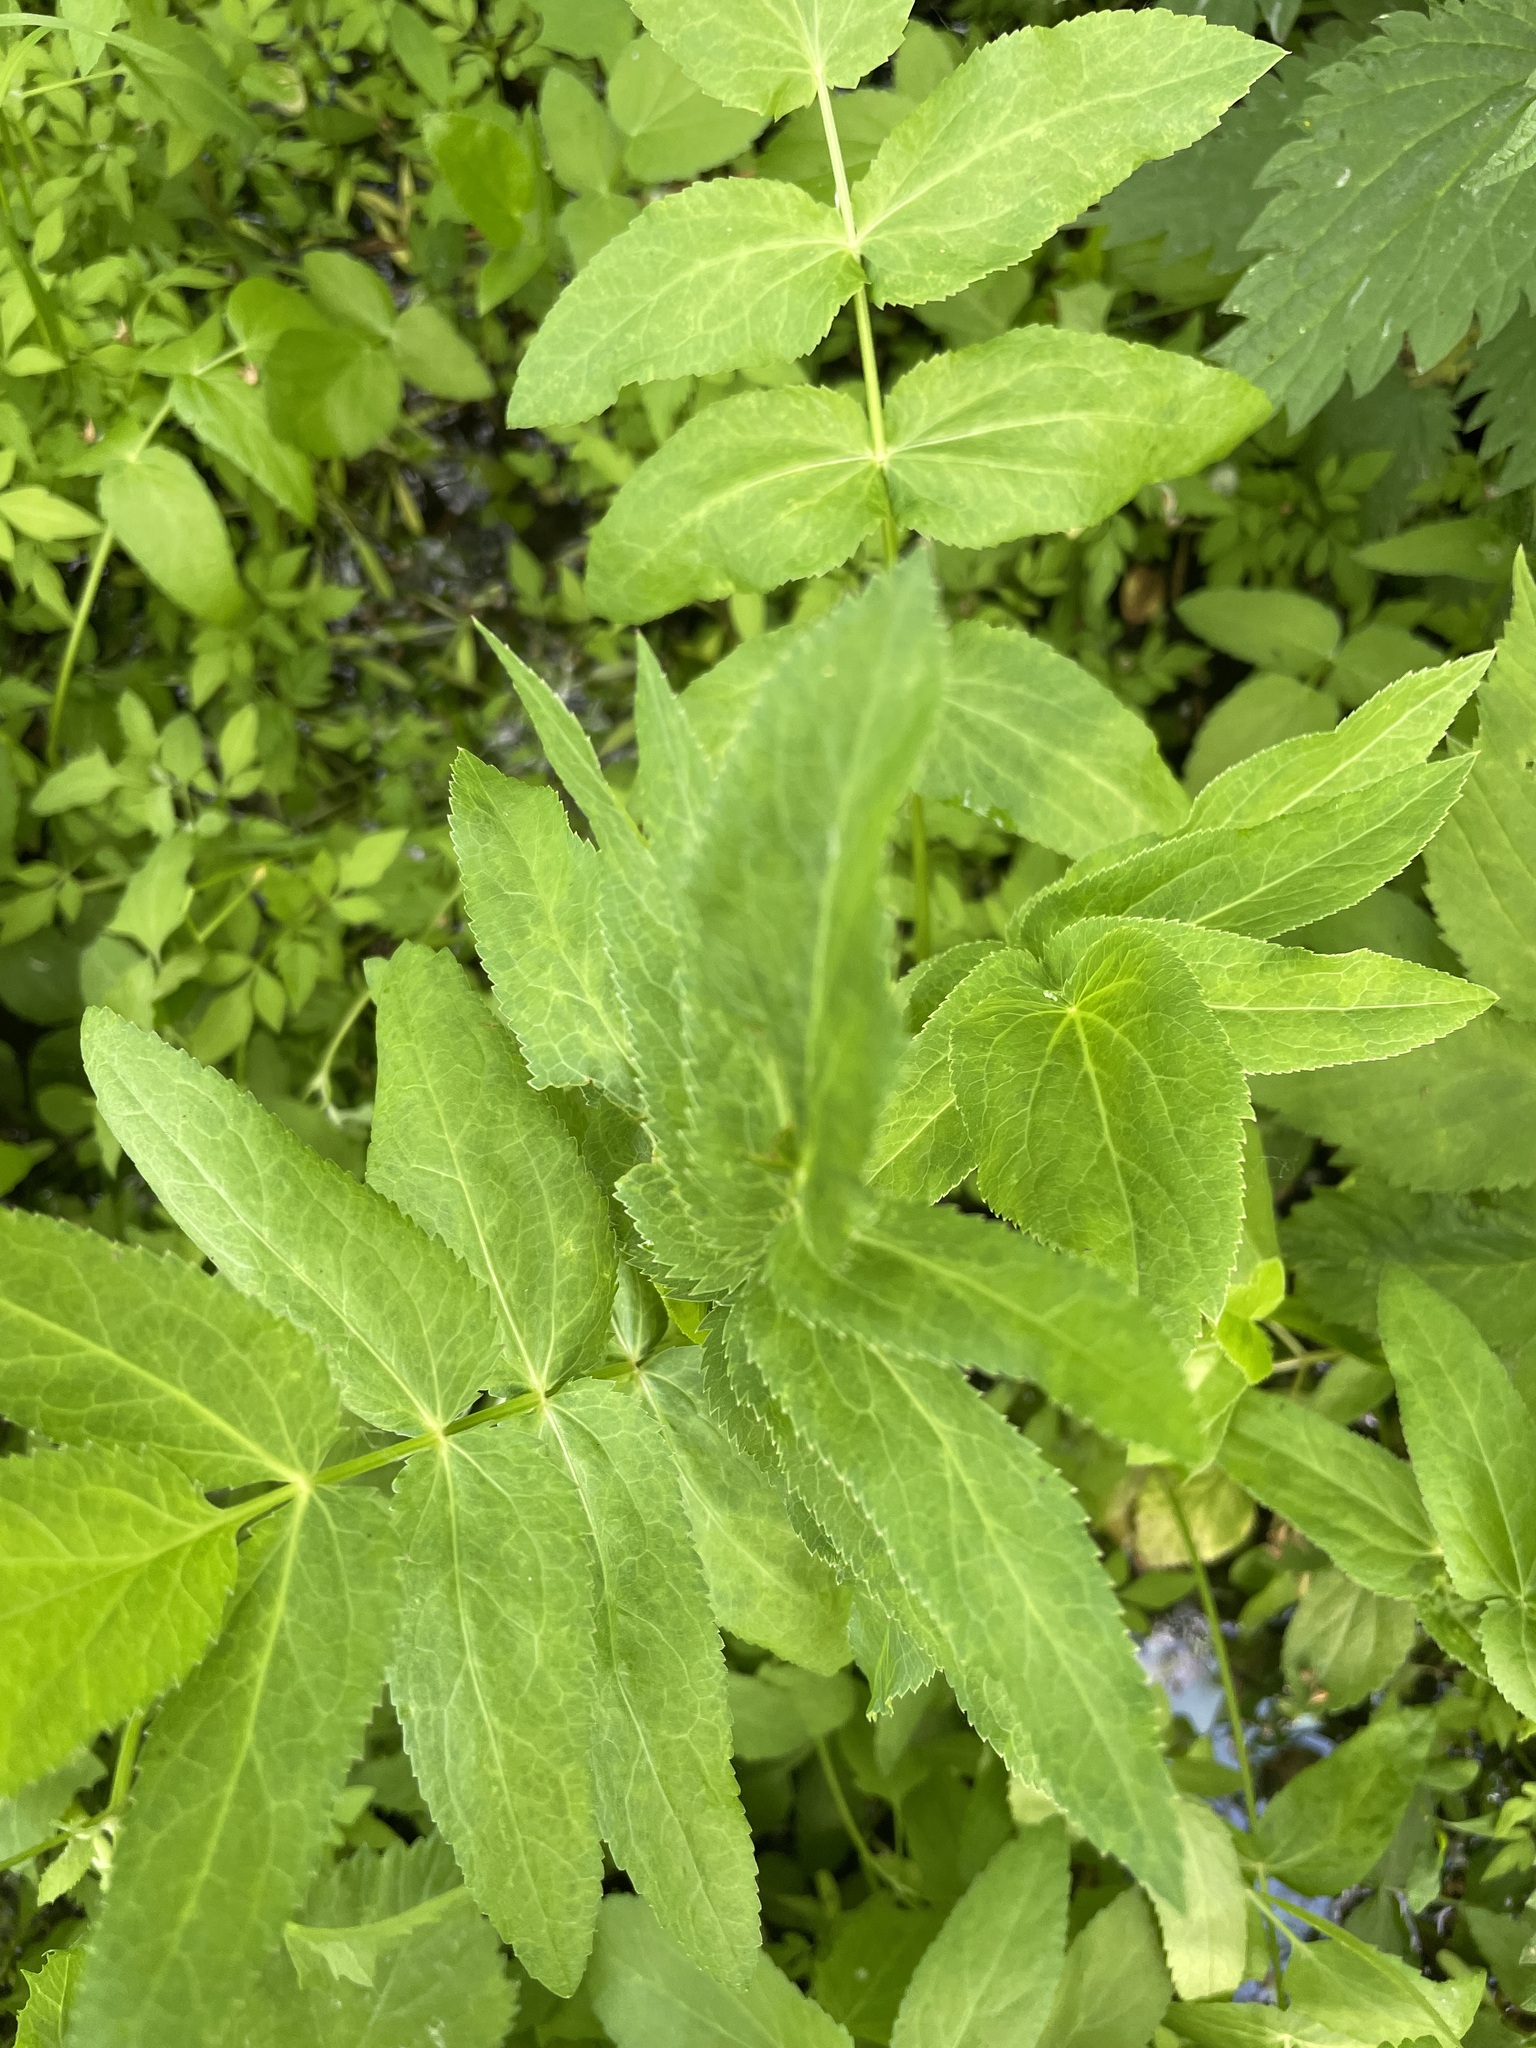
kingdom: Plantae
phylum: Tracheophyta
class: Magnoliopsida
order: Apiales
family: Apiaceae
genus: Sium
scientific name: Sium latifolium
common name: Greater water-parsnip
